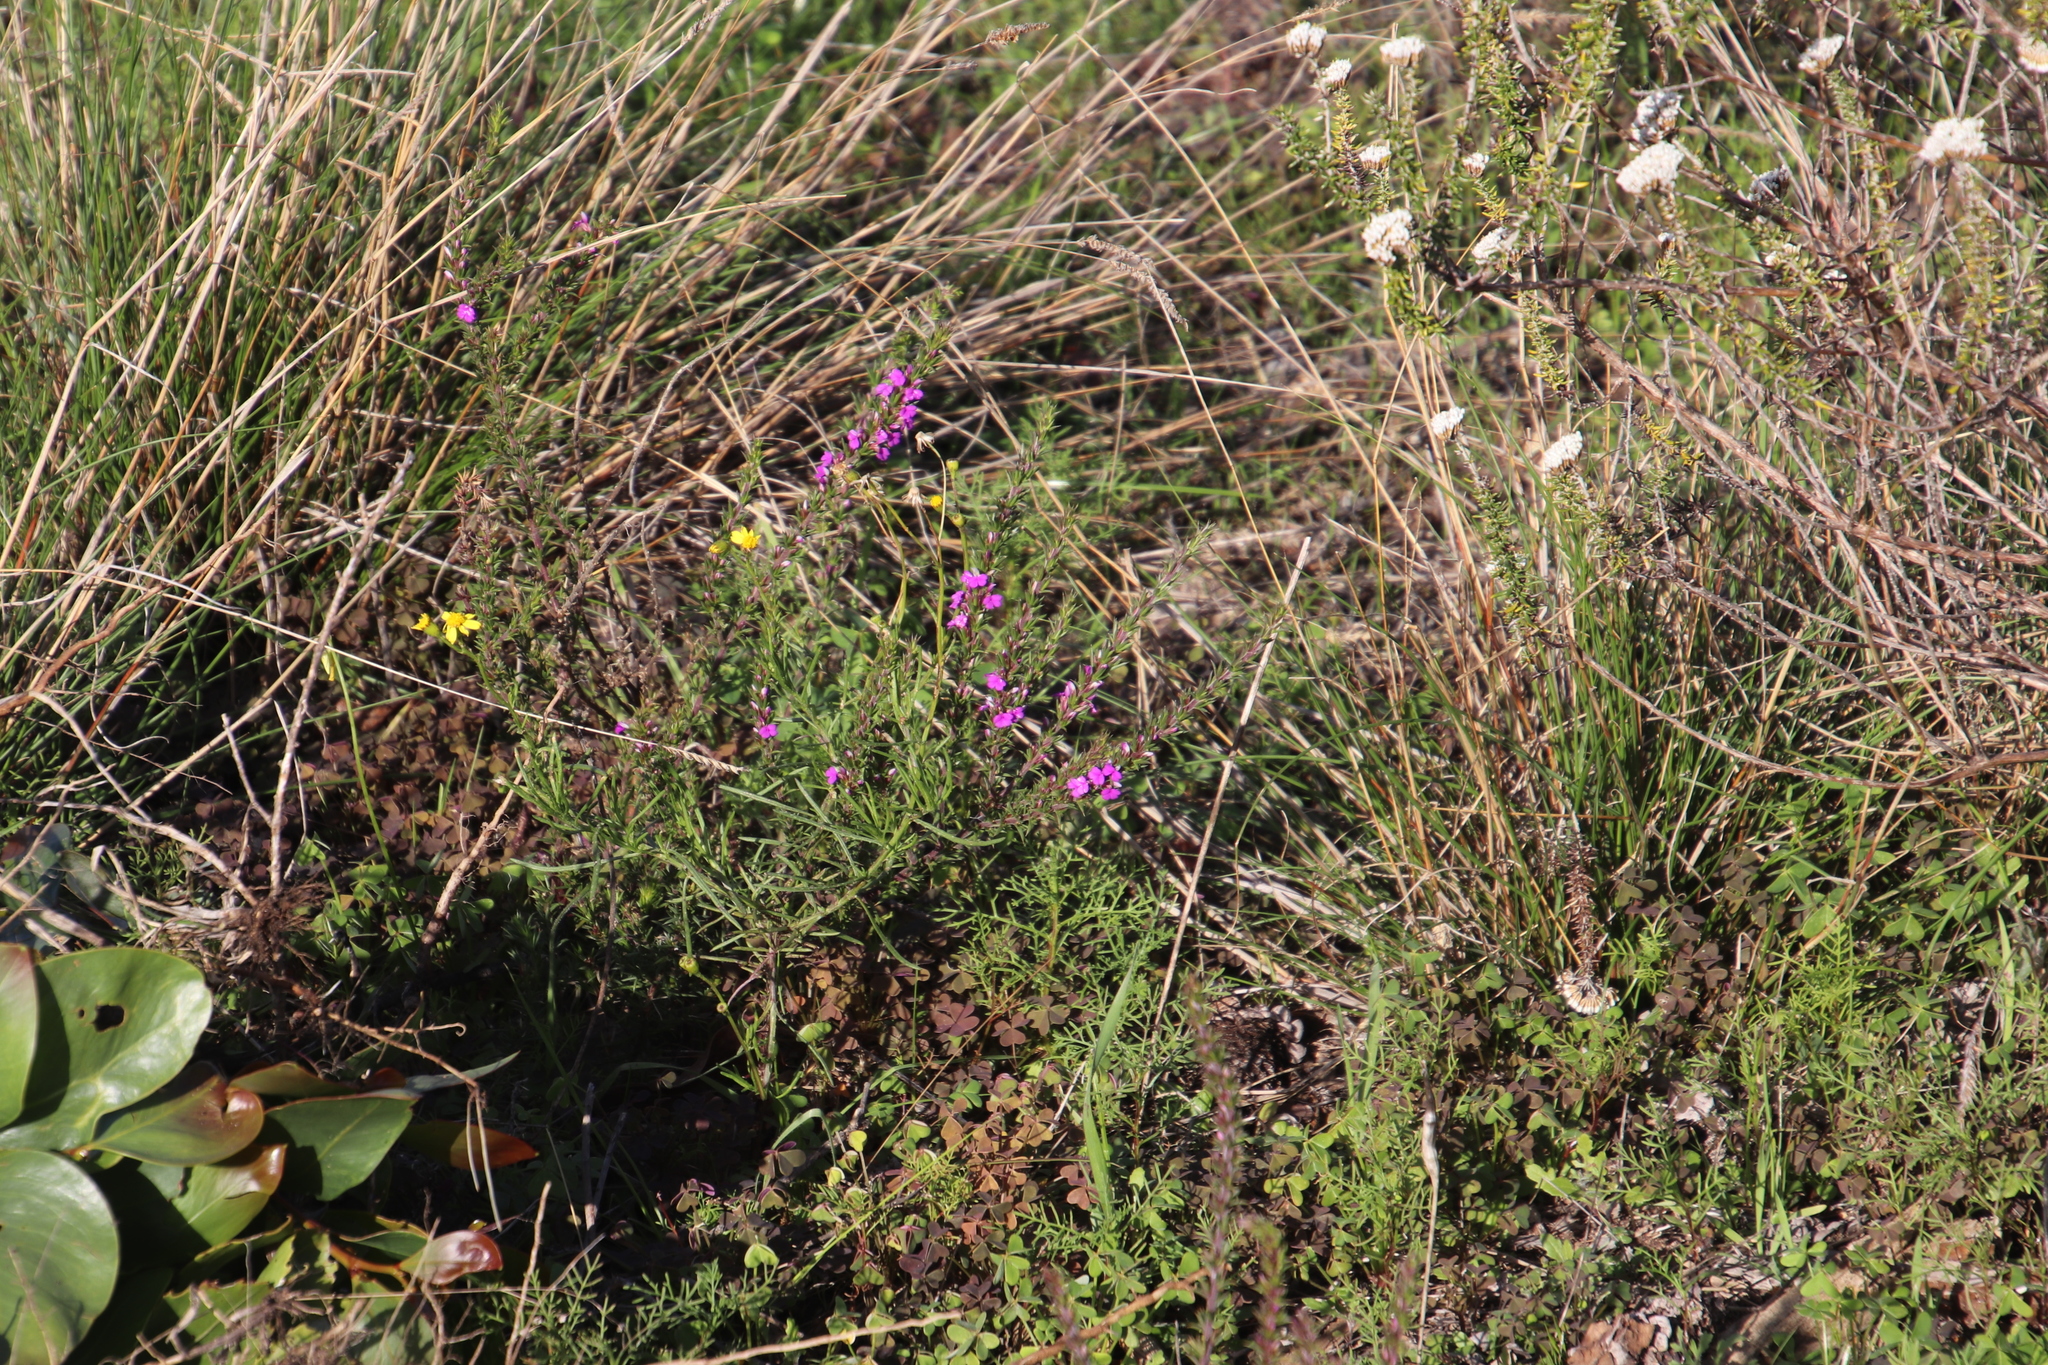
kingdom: Plantae
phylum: Tracheophyta
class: Magnoliopsida
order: Fabales
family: Polygalaceae
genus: Muraltia
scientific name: Muraltia heisteria
